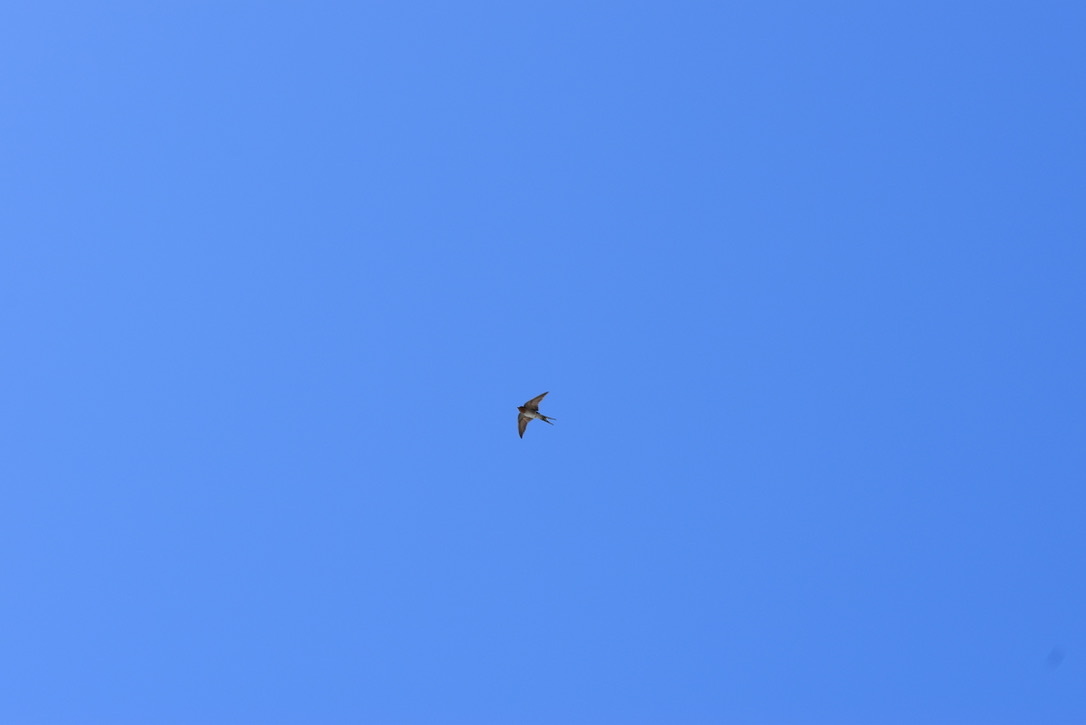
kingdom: Animalia
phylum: Chordata
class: Aves
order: Passeriformes
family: Hirundinidae
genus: Hirundo
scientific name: Hirundo neoxena
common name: Welcome swallow
